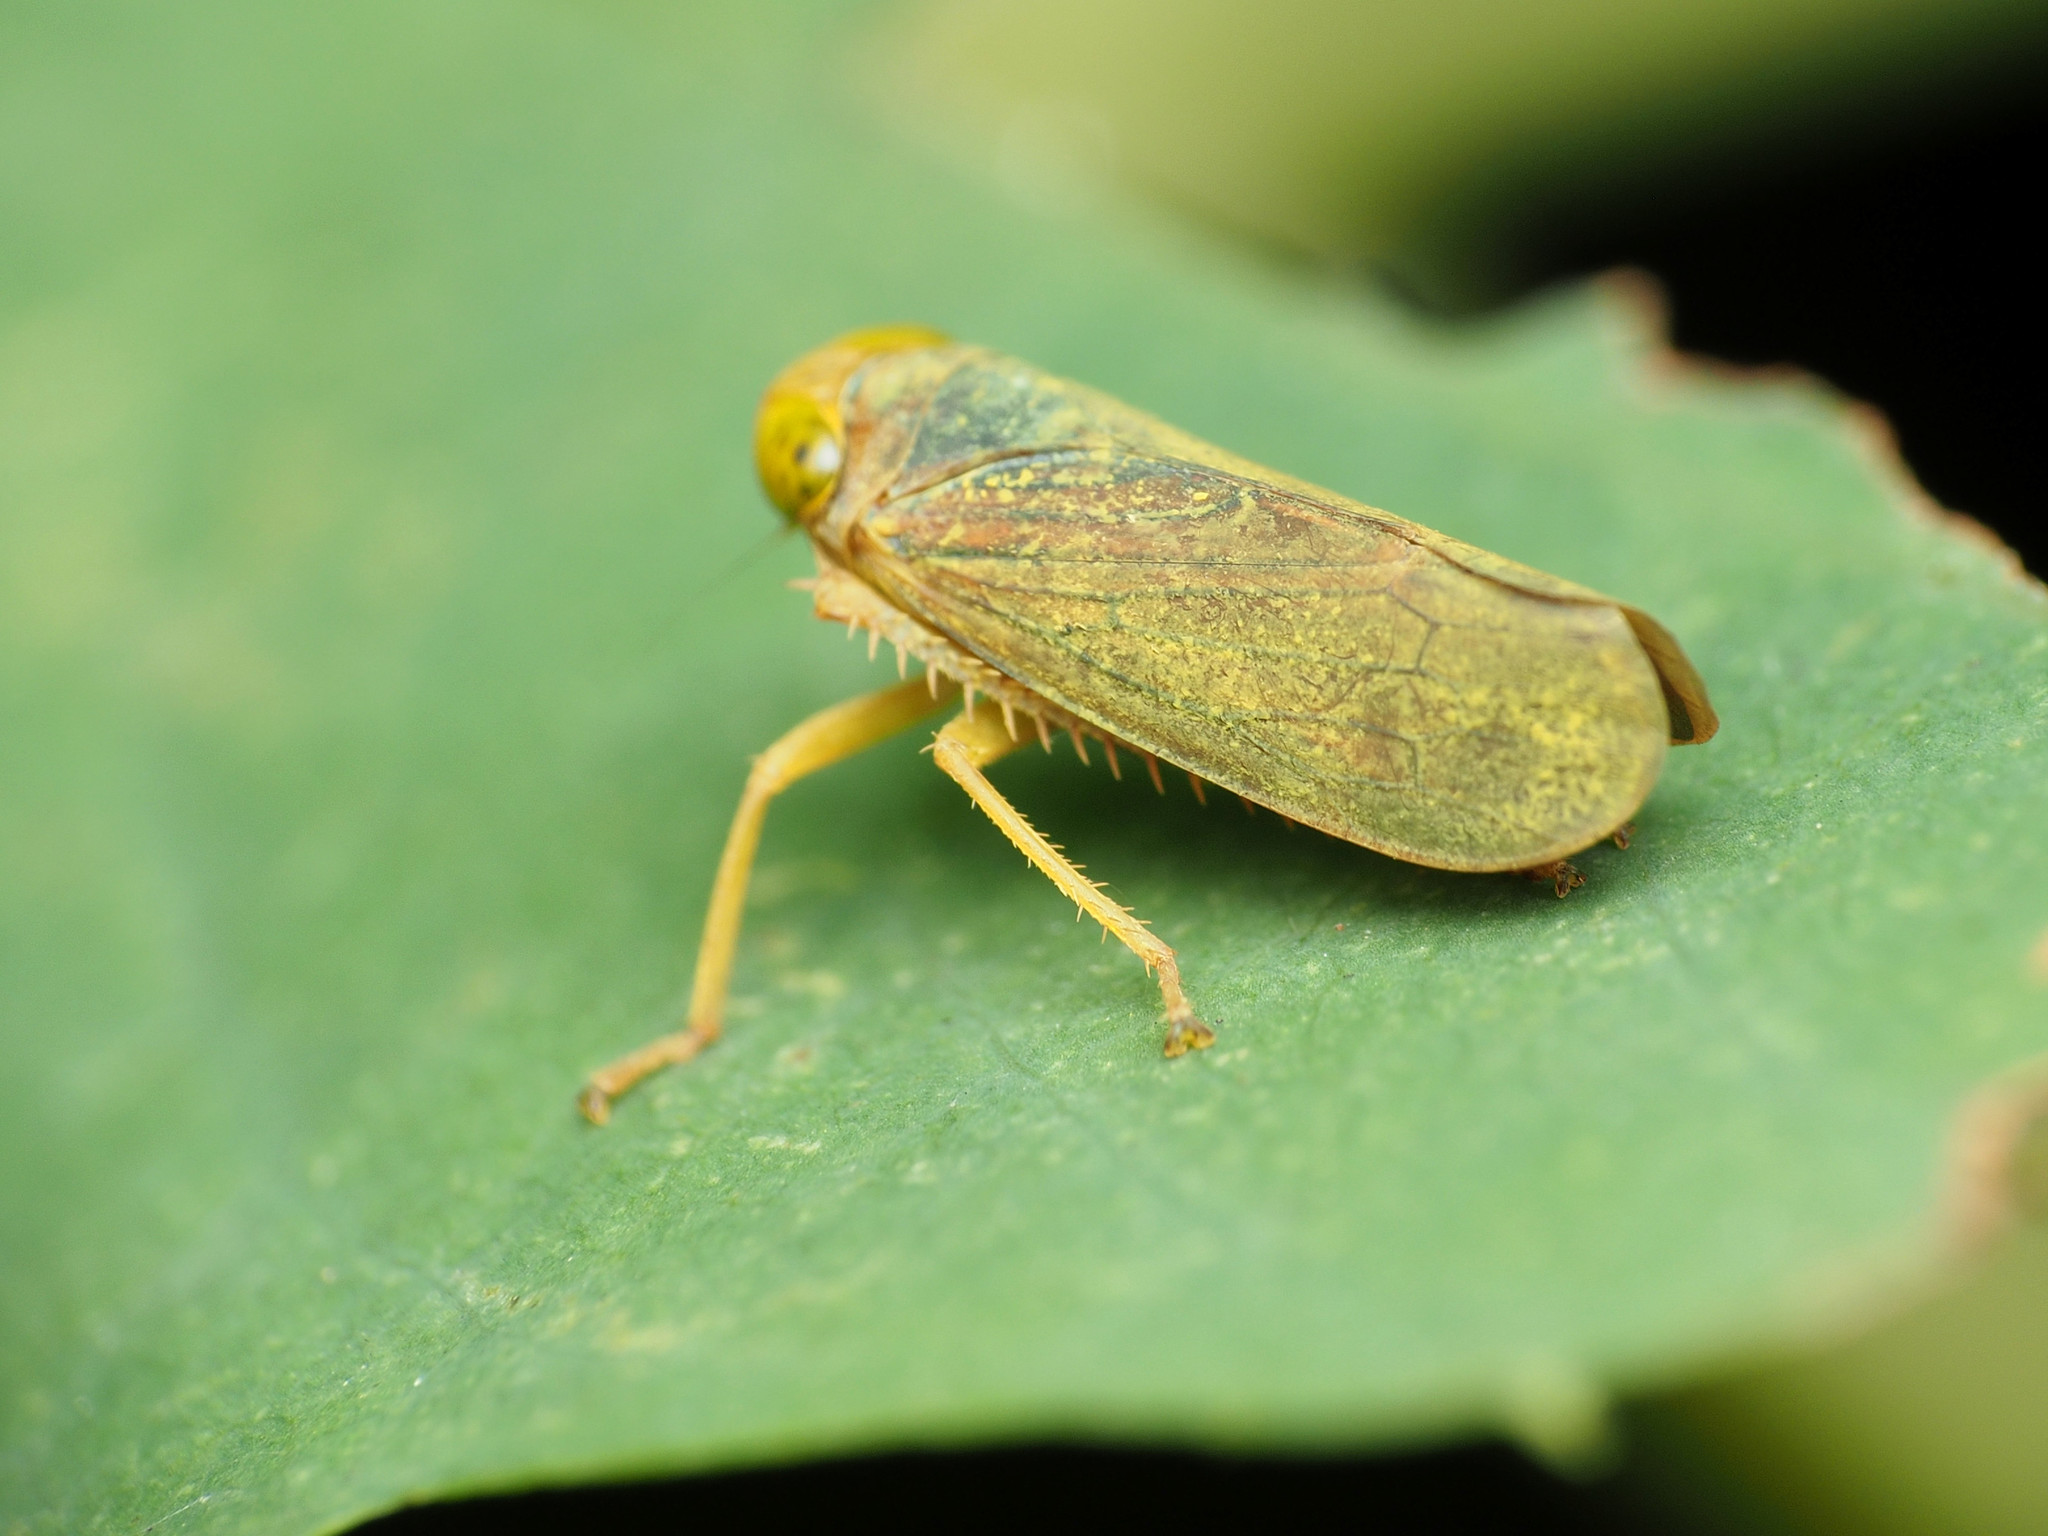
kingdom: Animalia
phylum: Arthropoda
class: Insecta
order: Hemiptera
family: Cicadellidae
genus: Jikradia
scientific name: Jikradia olitoria
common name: Coppery leafhopper
